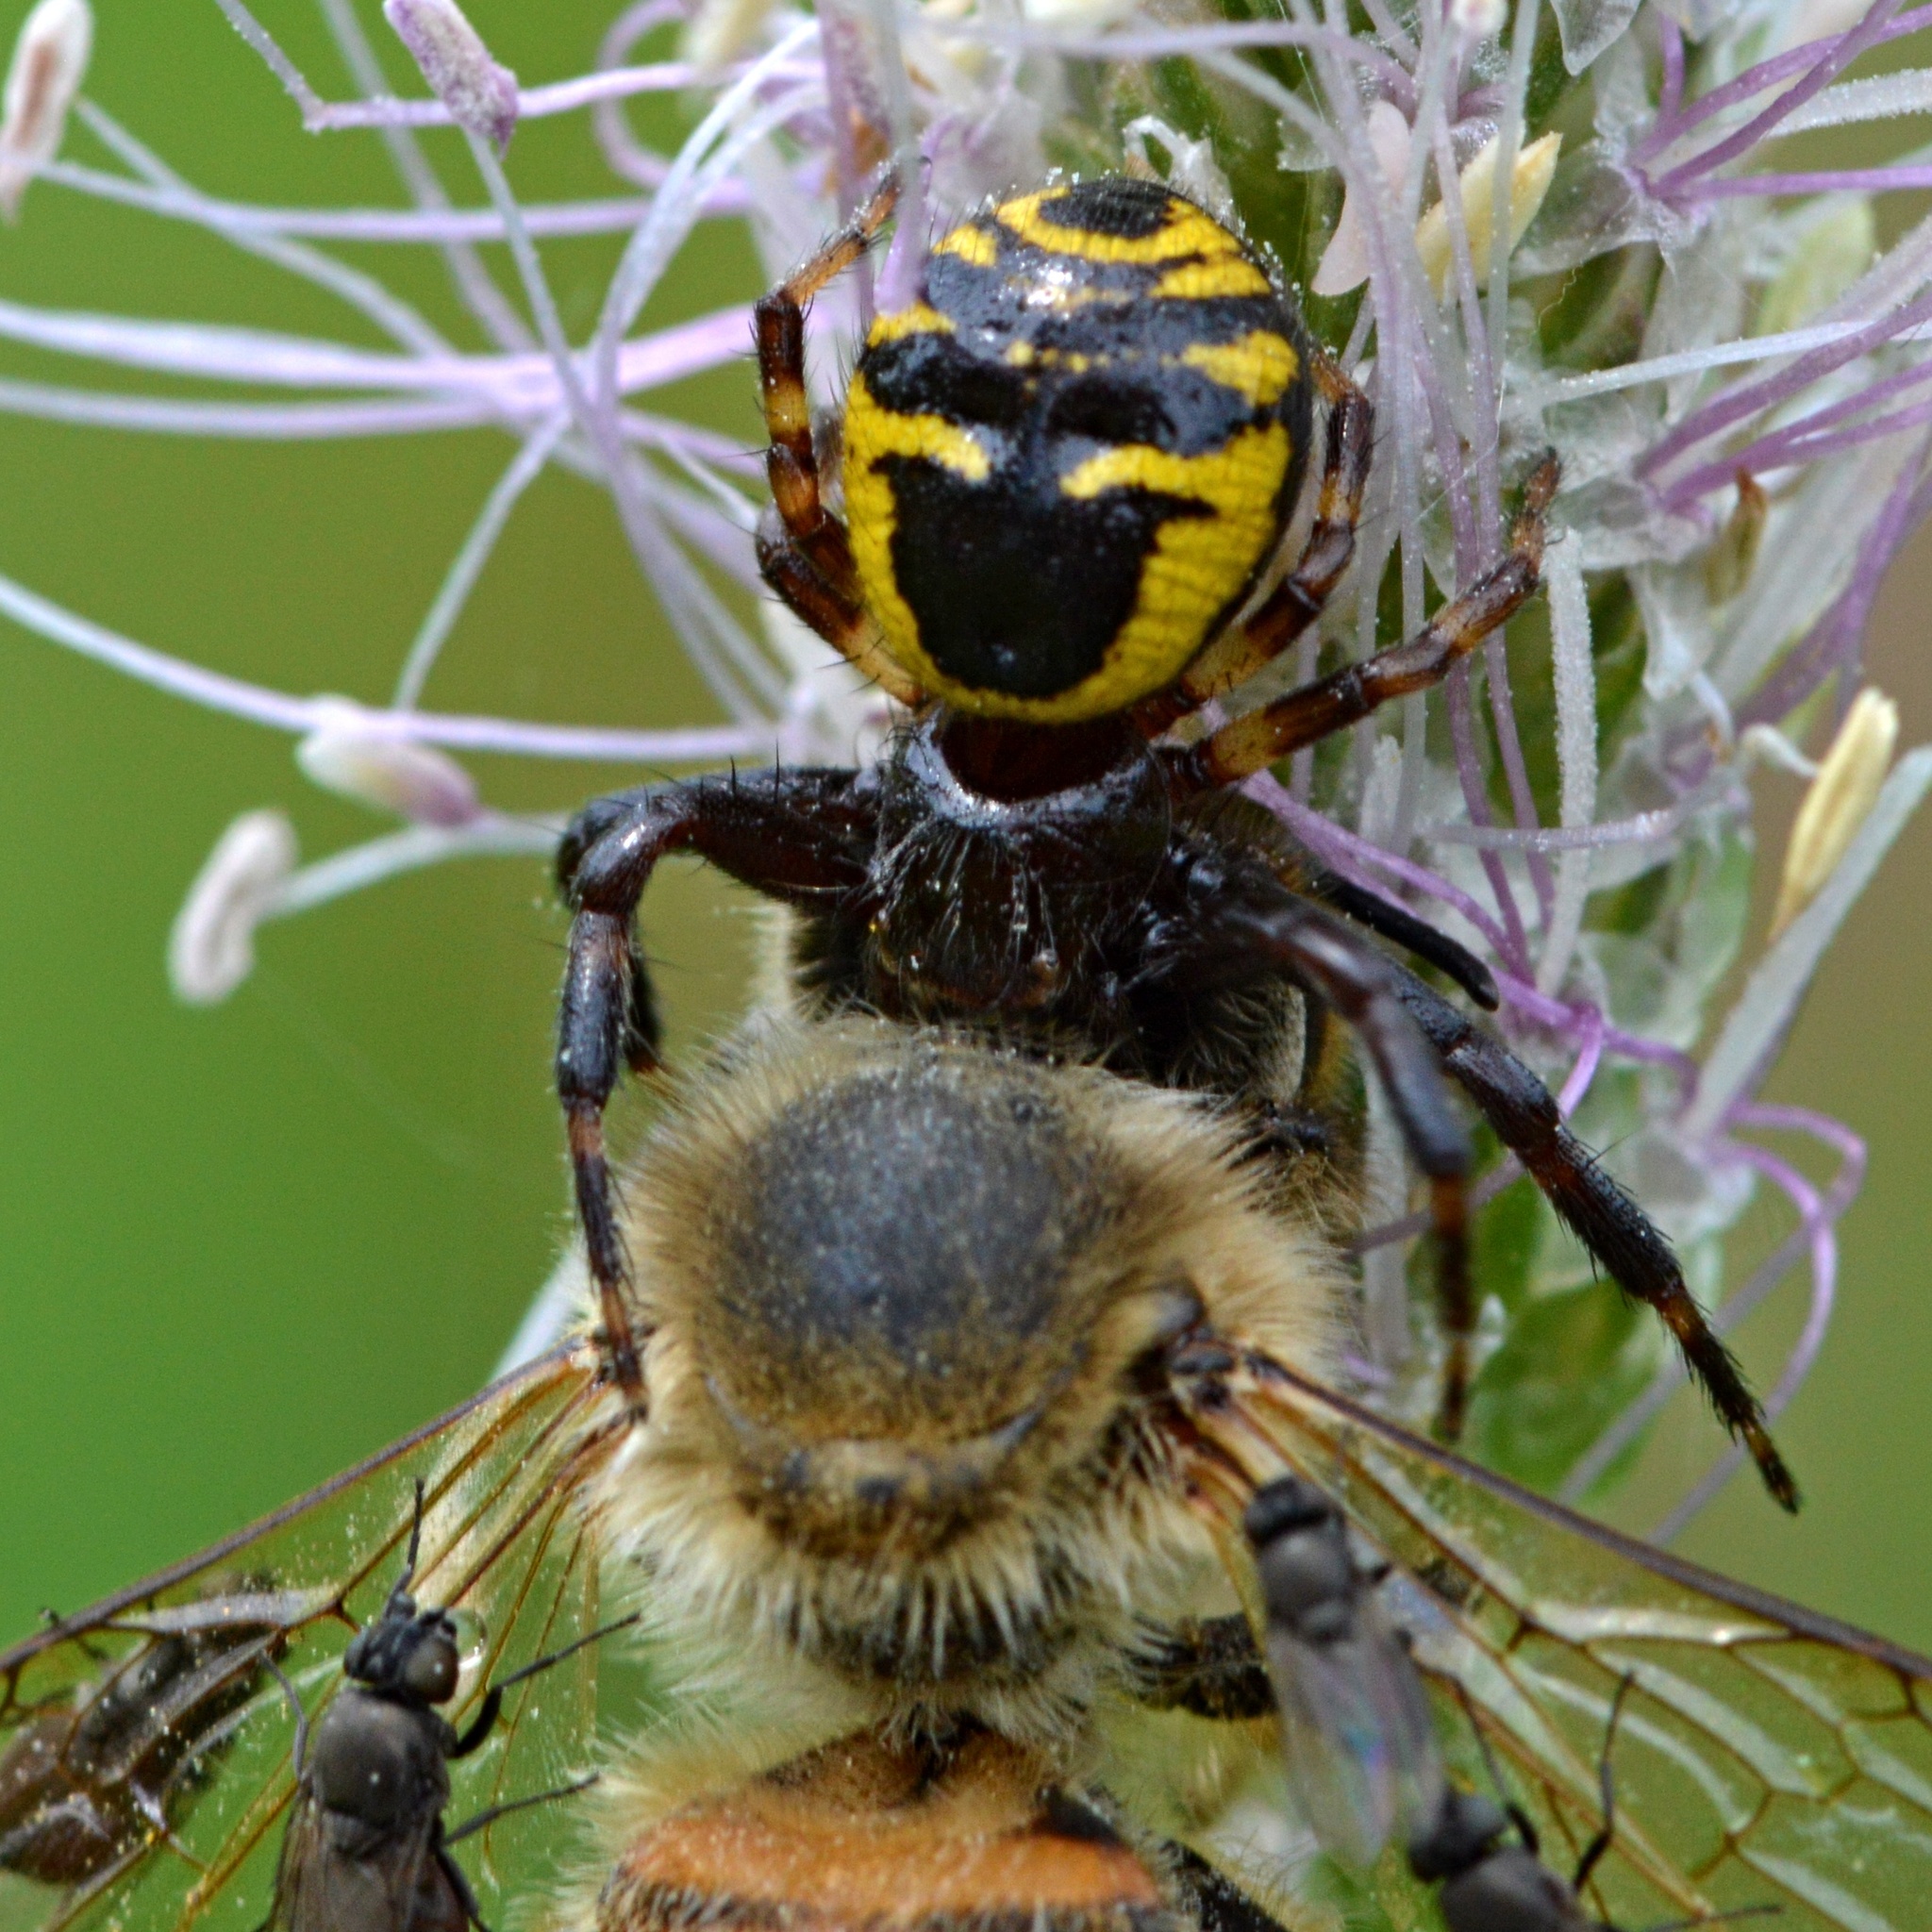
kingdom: Animalia
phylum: Arthropoda
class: Arachnida
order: Araneae
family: Thomisidae
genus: Synema
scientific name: Synema globosum
